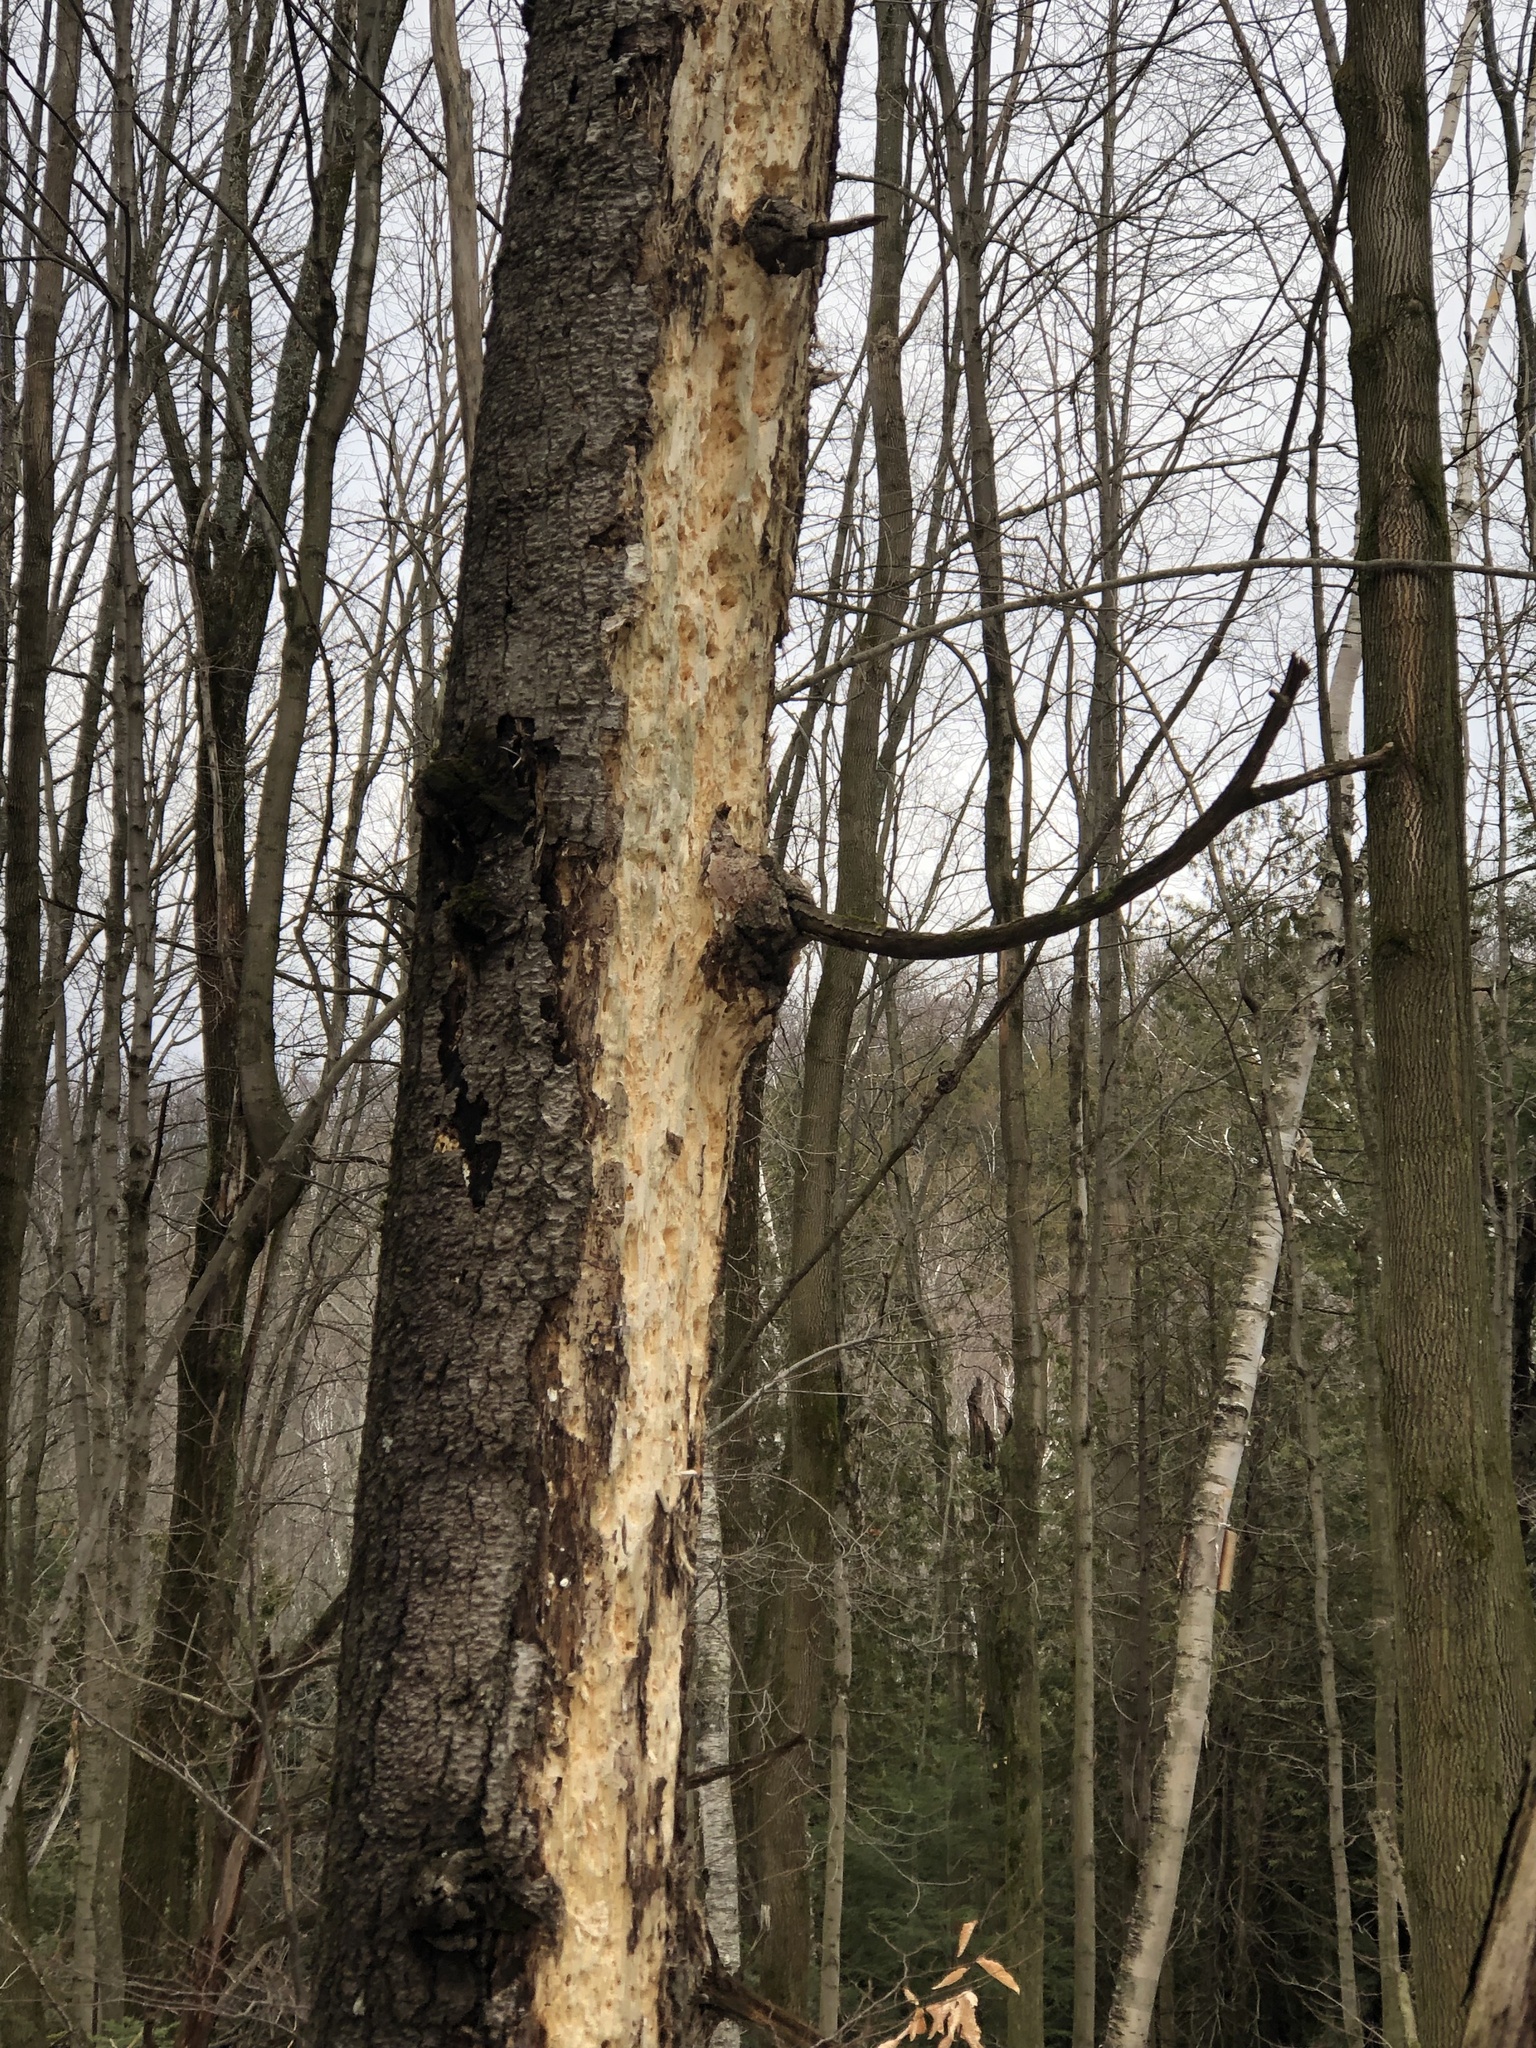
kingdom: Animalia
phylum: Chordata
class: Aves
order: Piciformes
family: Picidae
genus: Dryocopus
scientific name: Dryocopus pileatus
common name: Pileated woodpecker
